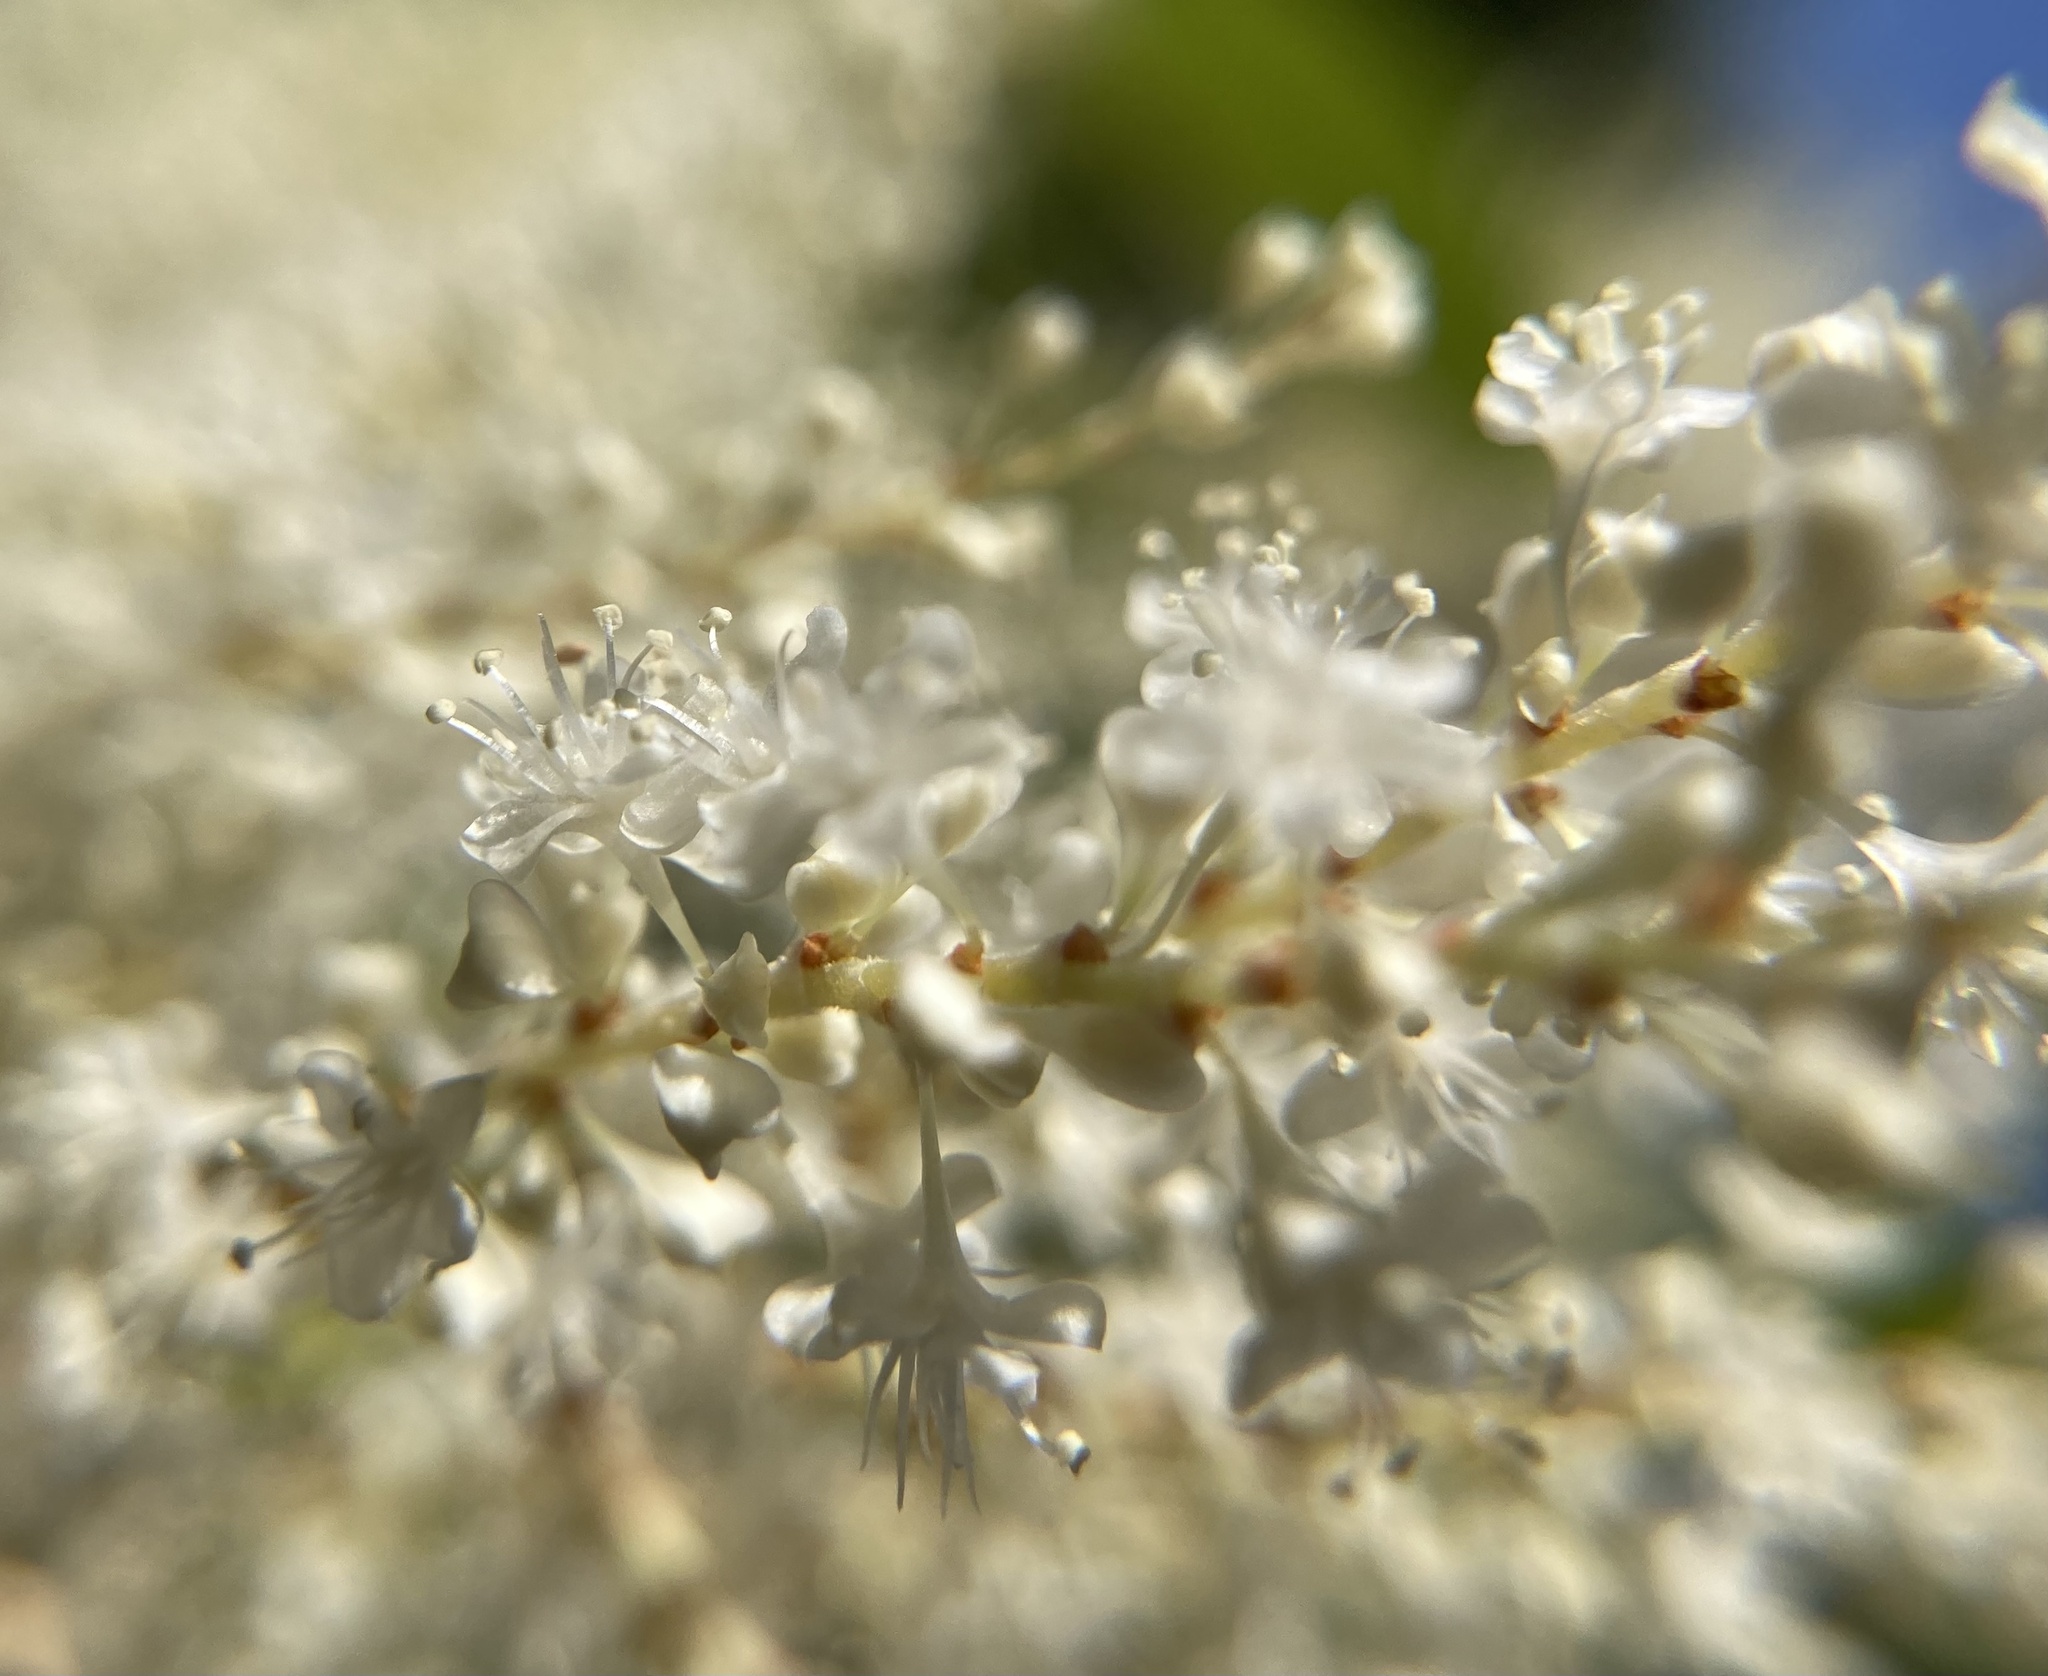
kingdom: Plantae
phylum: Tracheophyta
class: Magnoliopsida
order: Caryophyllales
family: Polygonaceae
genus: Reynoutria
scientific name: Reynoutria japonica
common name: Japanese knotweed
